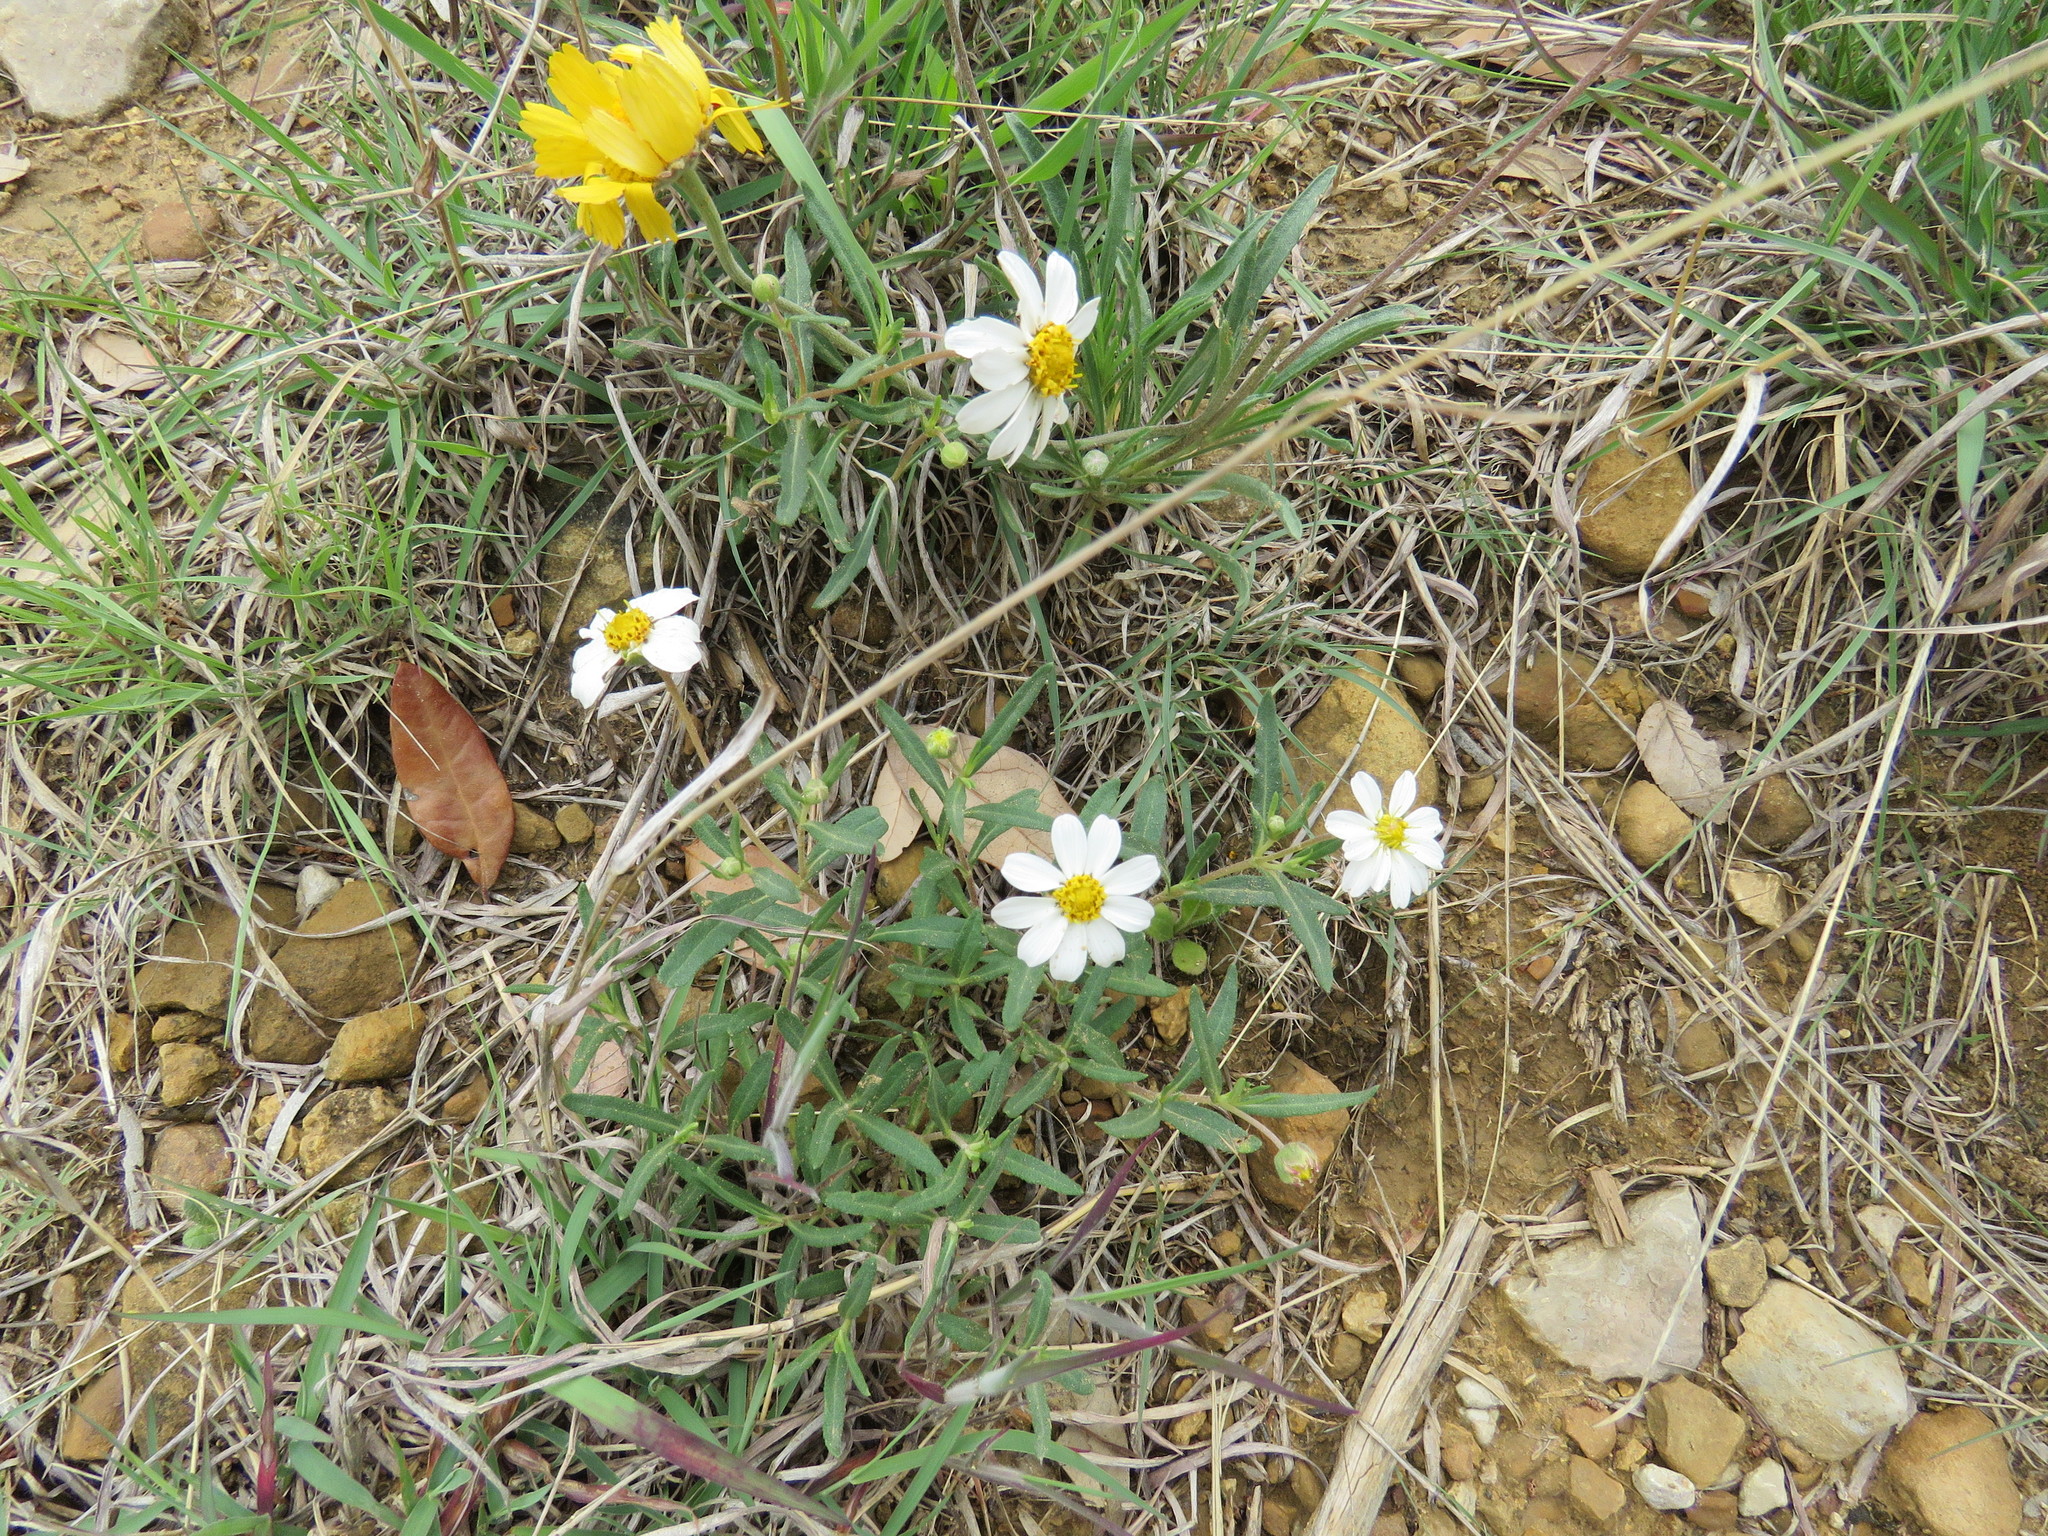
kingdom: Plantae
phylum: Tracheophyta
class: Magnoliopsida
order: Asterales
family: Asteraceae
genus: Melampodium
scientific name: Melampodium leucanthum
